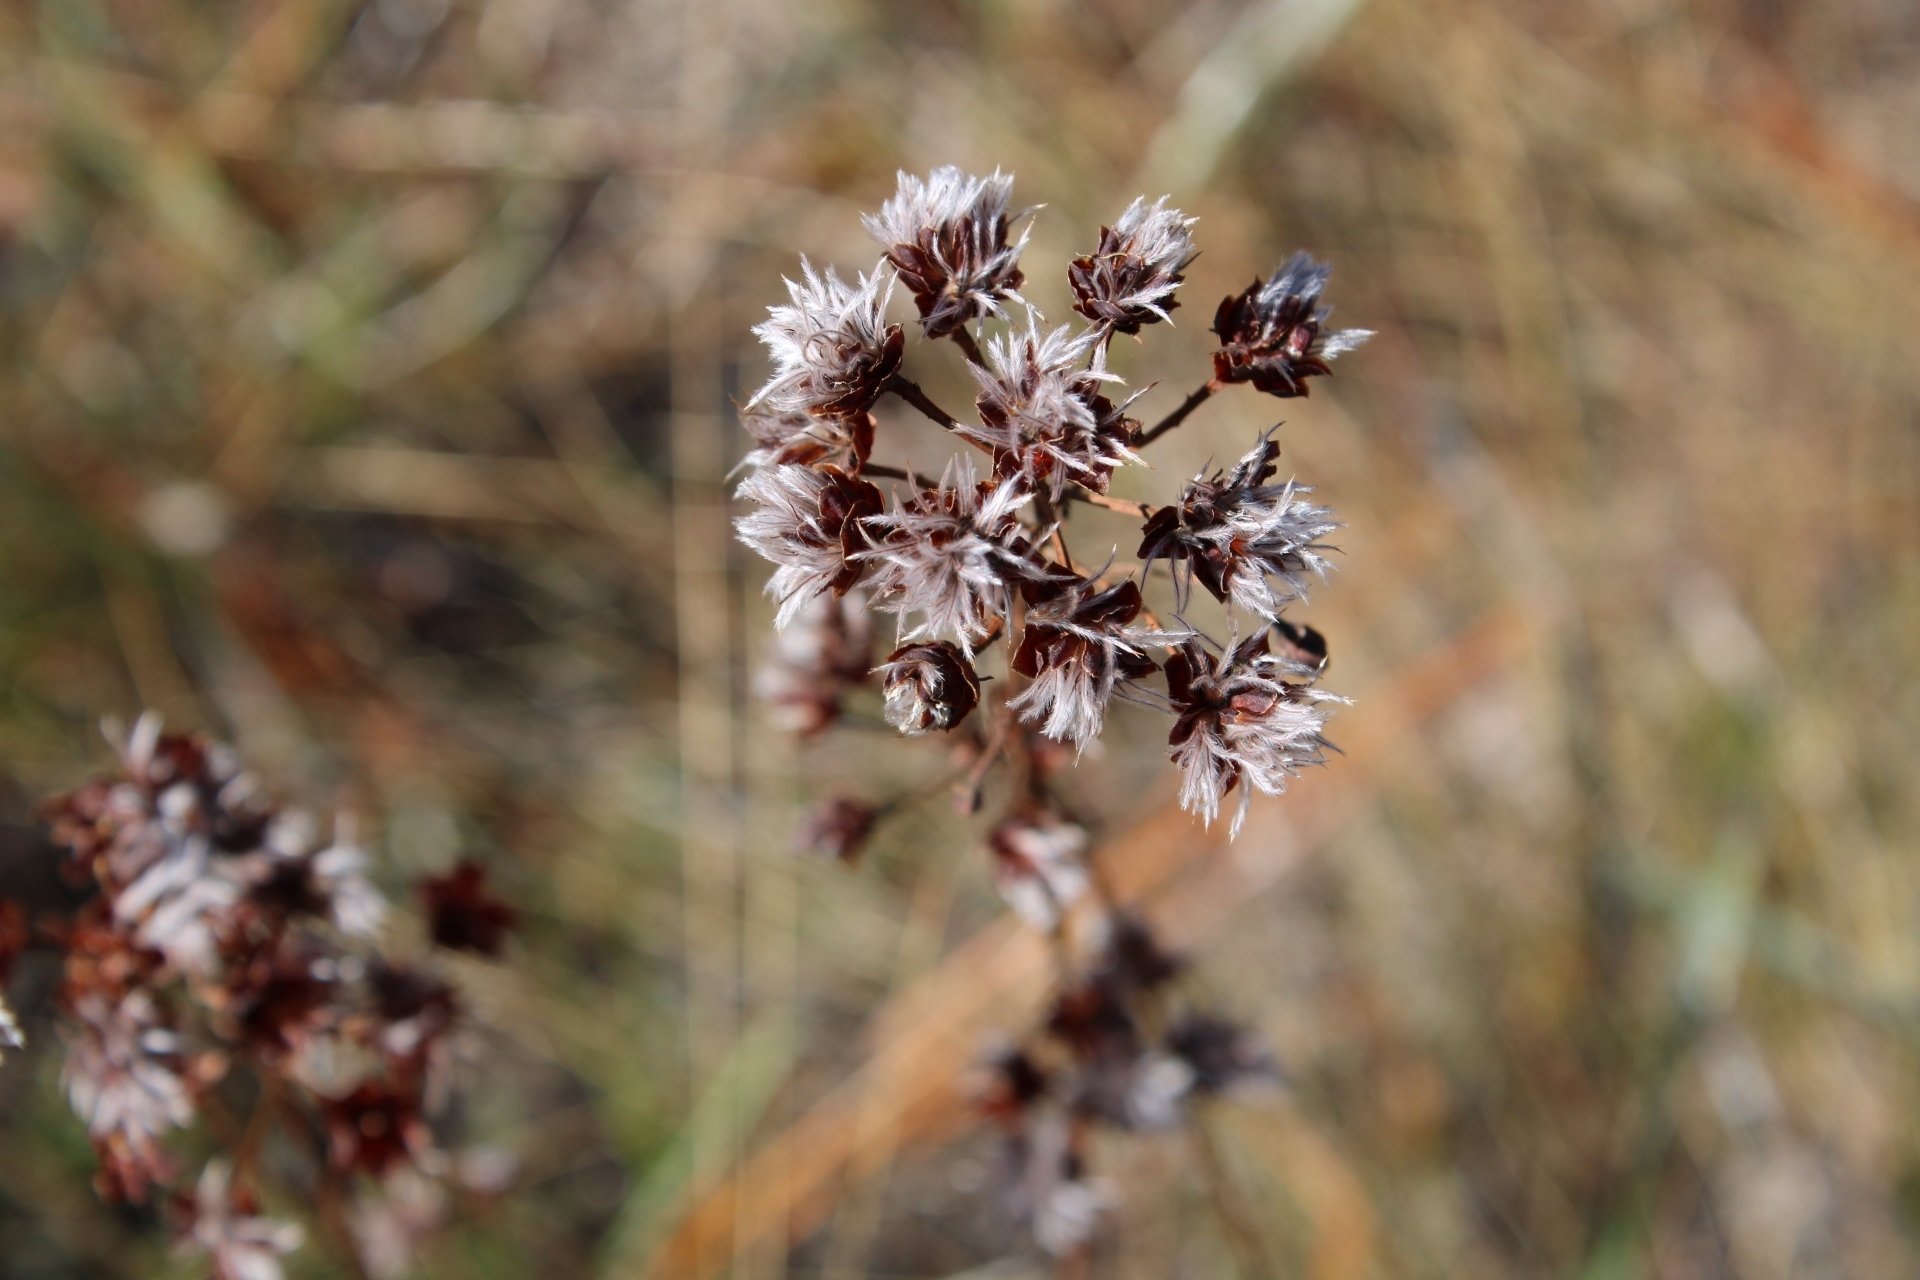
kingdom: Plantae
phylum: Tracheophyta
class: Magnoliopsida
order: Fabales
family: Fabaceae
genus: Dalea
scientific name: Dalea pinnata
